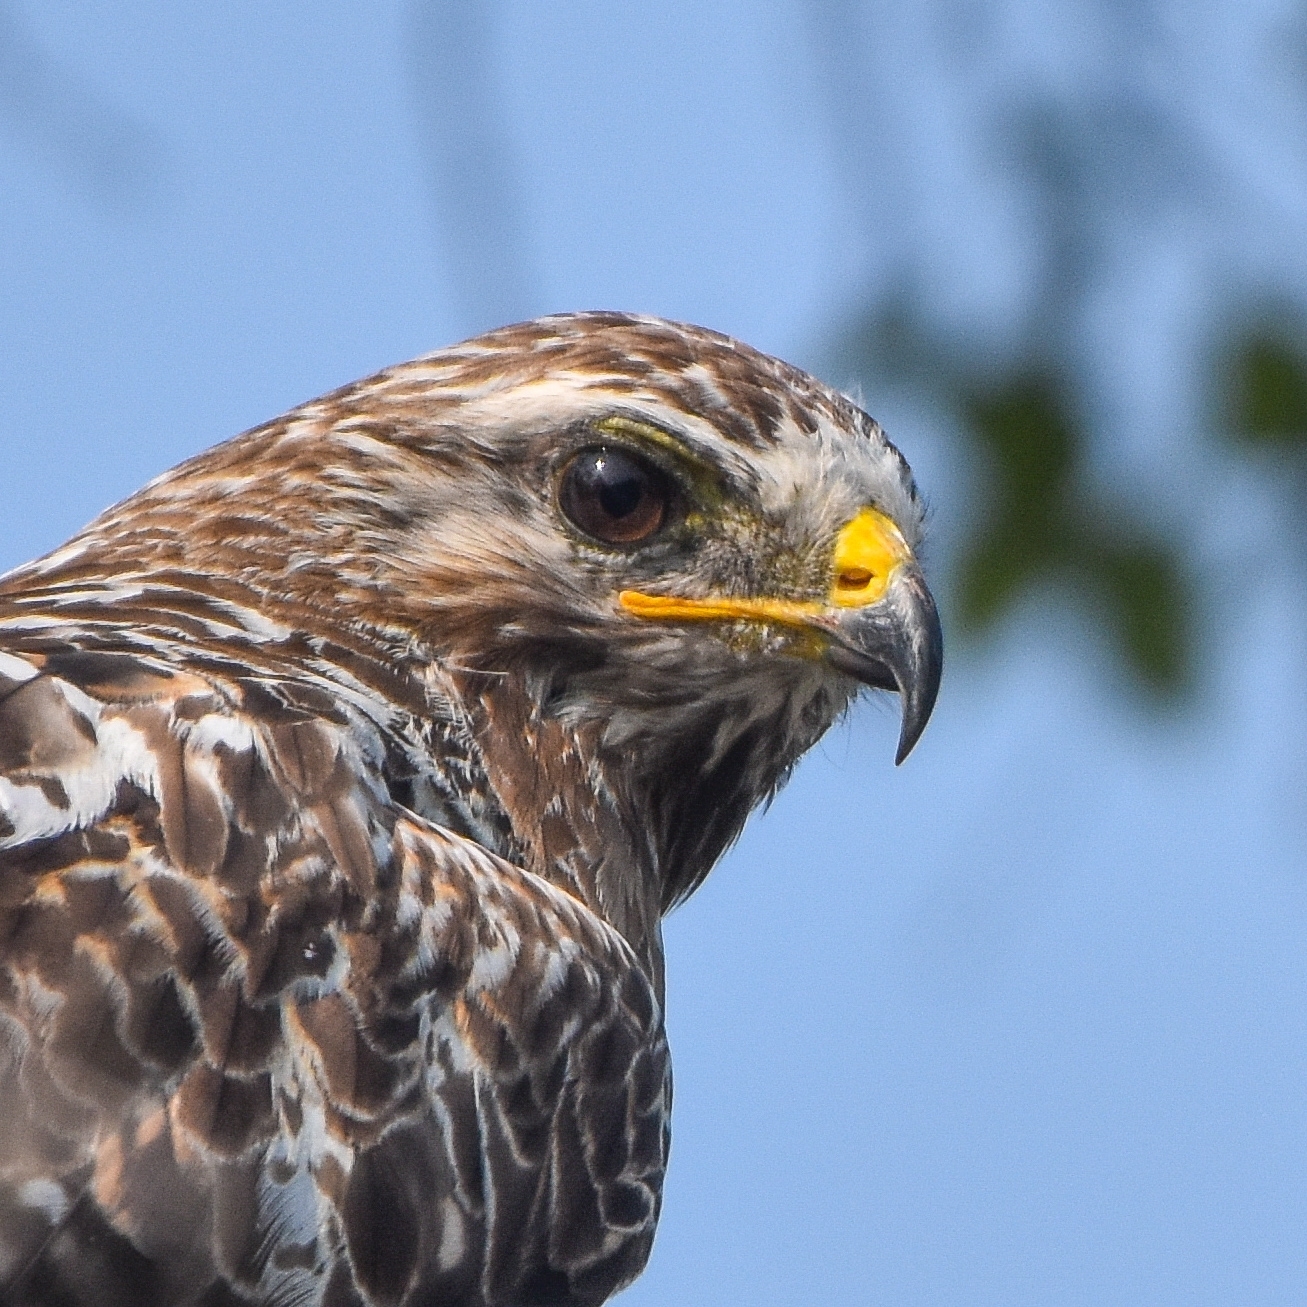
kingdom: Animalia
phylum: Chordata
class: Aves
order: Accipitriformes
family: Accipitridae
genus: Buteo
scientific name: Buteo lagopus
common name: Rough-legged buzzard
